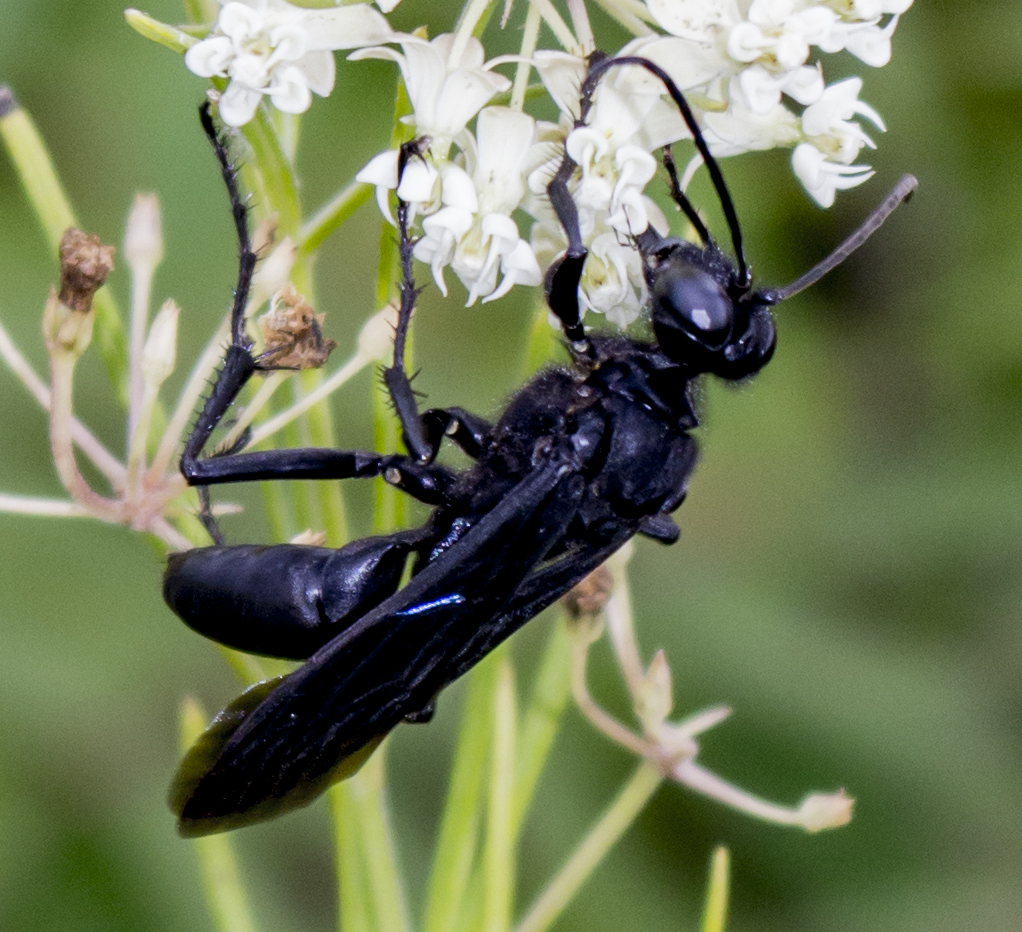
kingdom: Animalia
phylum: Arthropoda
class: Insecta
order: Hymenoptera
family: Sphecidae
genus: Sphex
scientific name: Sphex pensylvanicus
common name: Great black digger wasp
